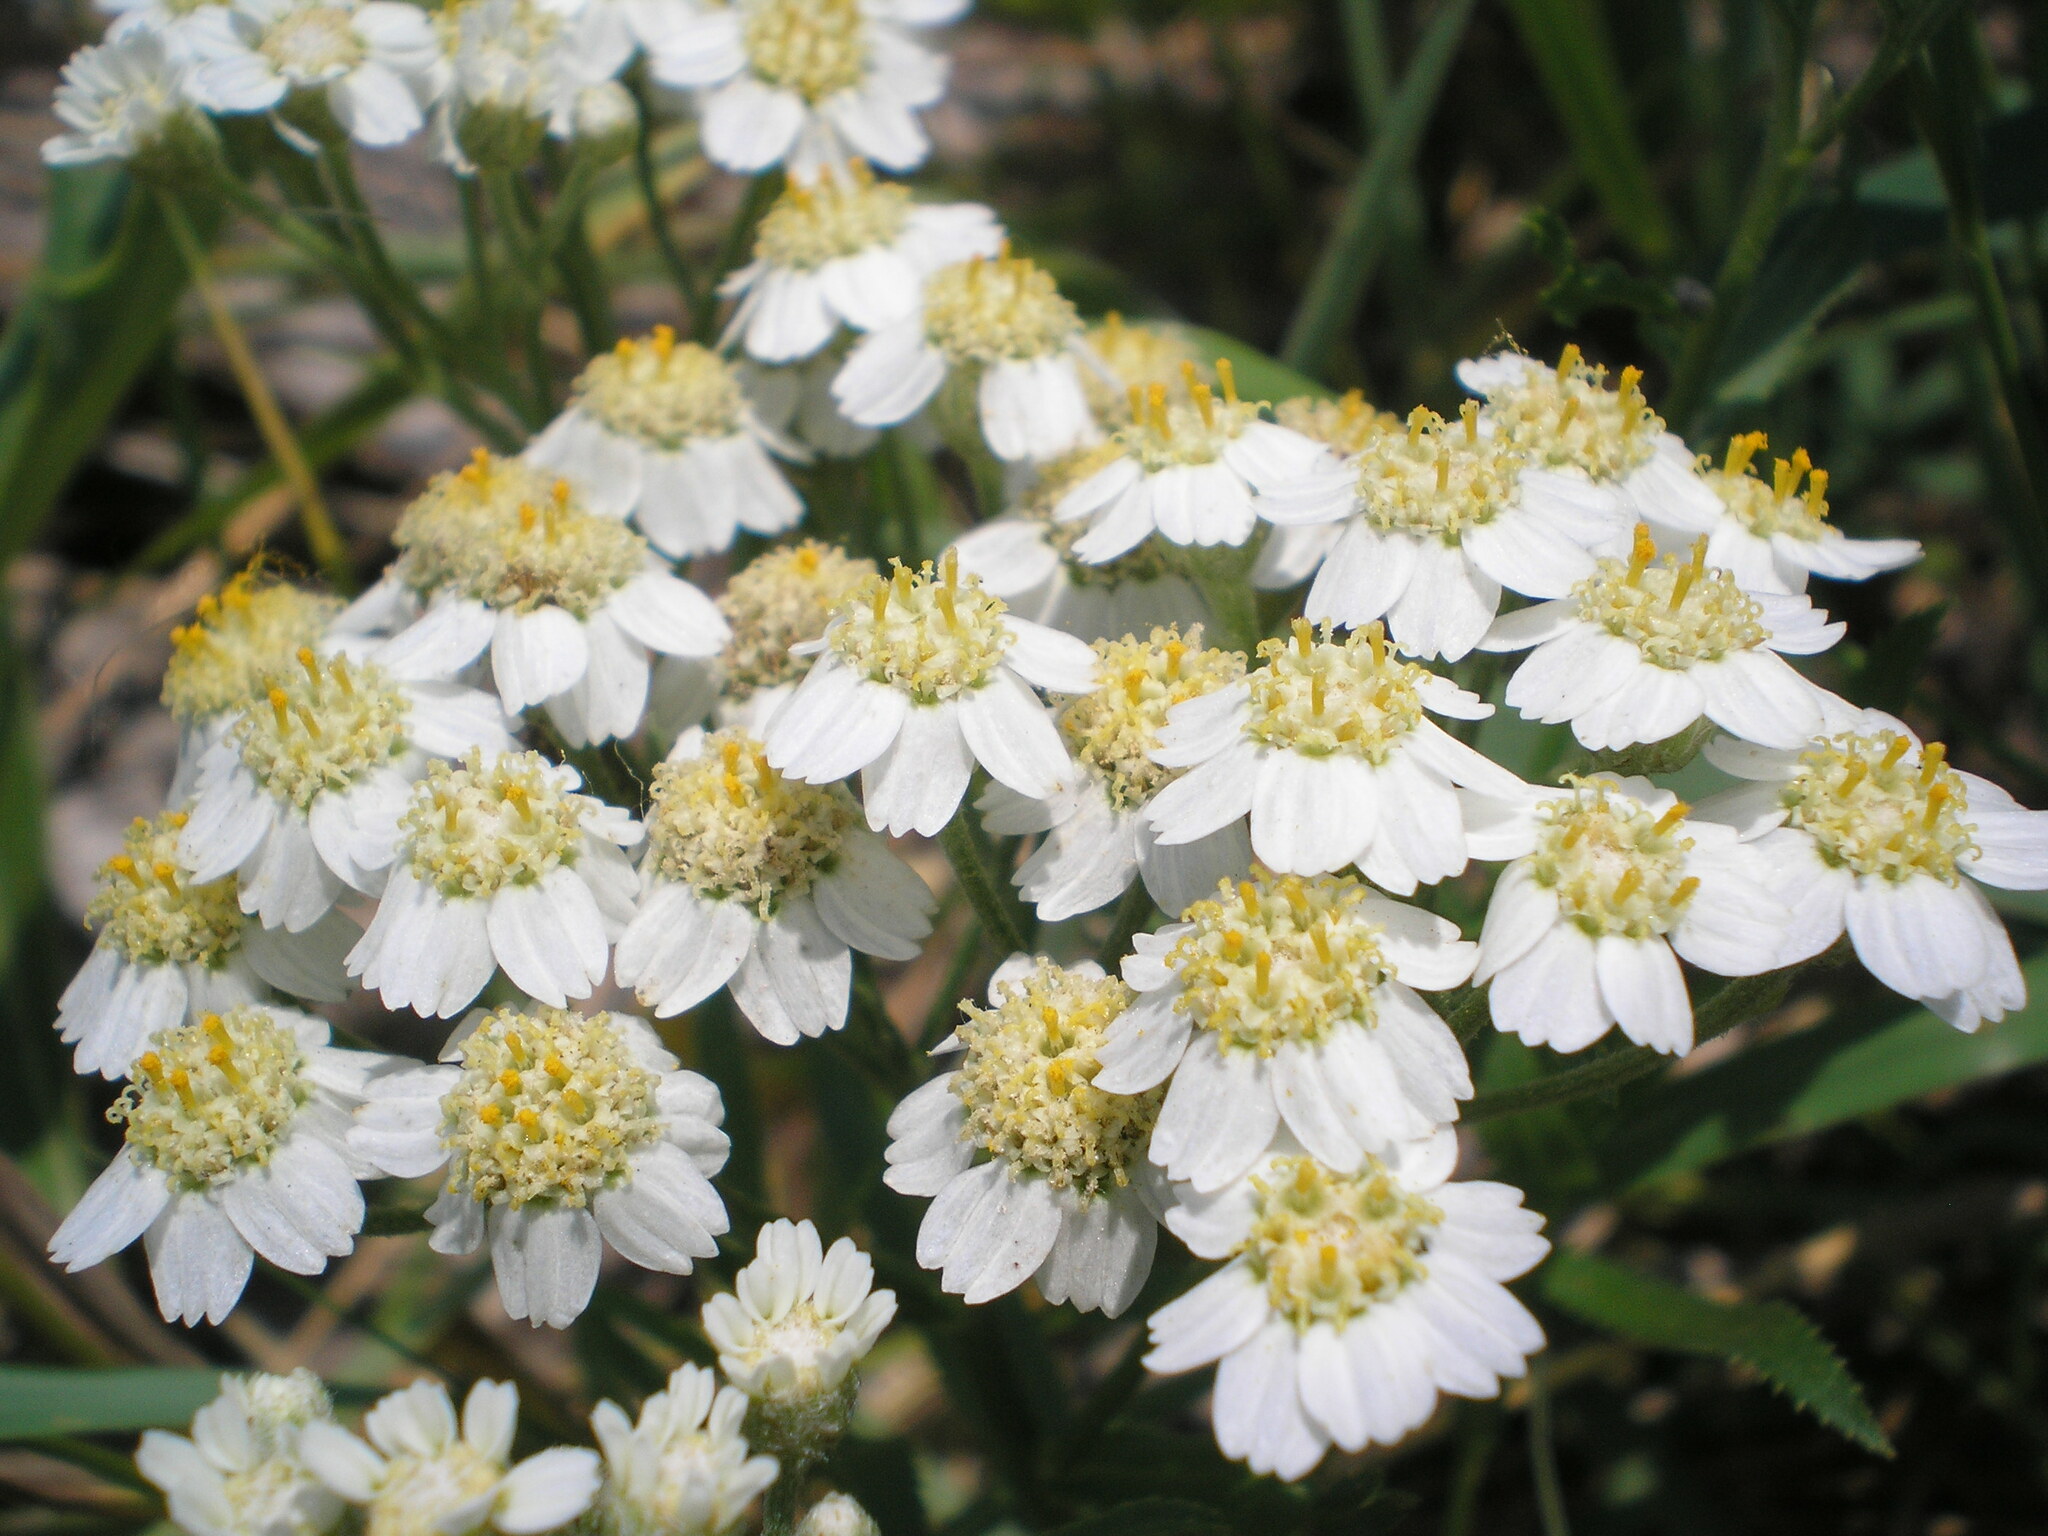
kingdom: Plantae
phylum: Tracheophyta
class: Magnoliopsida
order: Asterales
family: Asteraceae
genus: Achillea
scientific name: Achillea salicifolia
